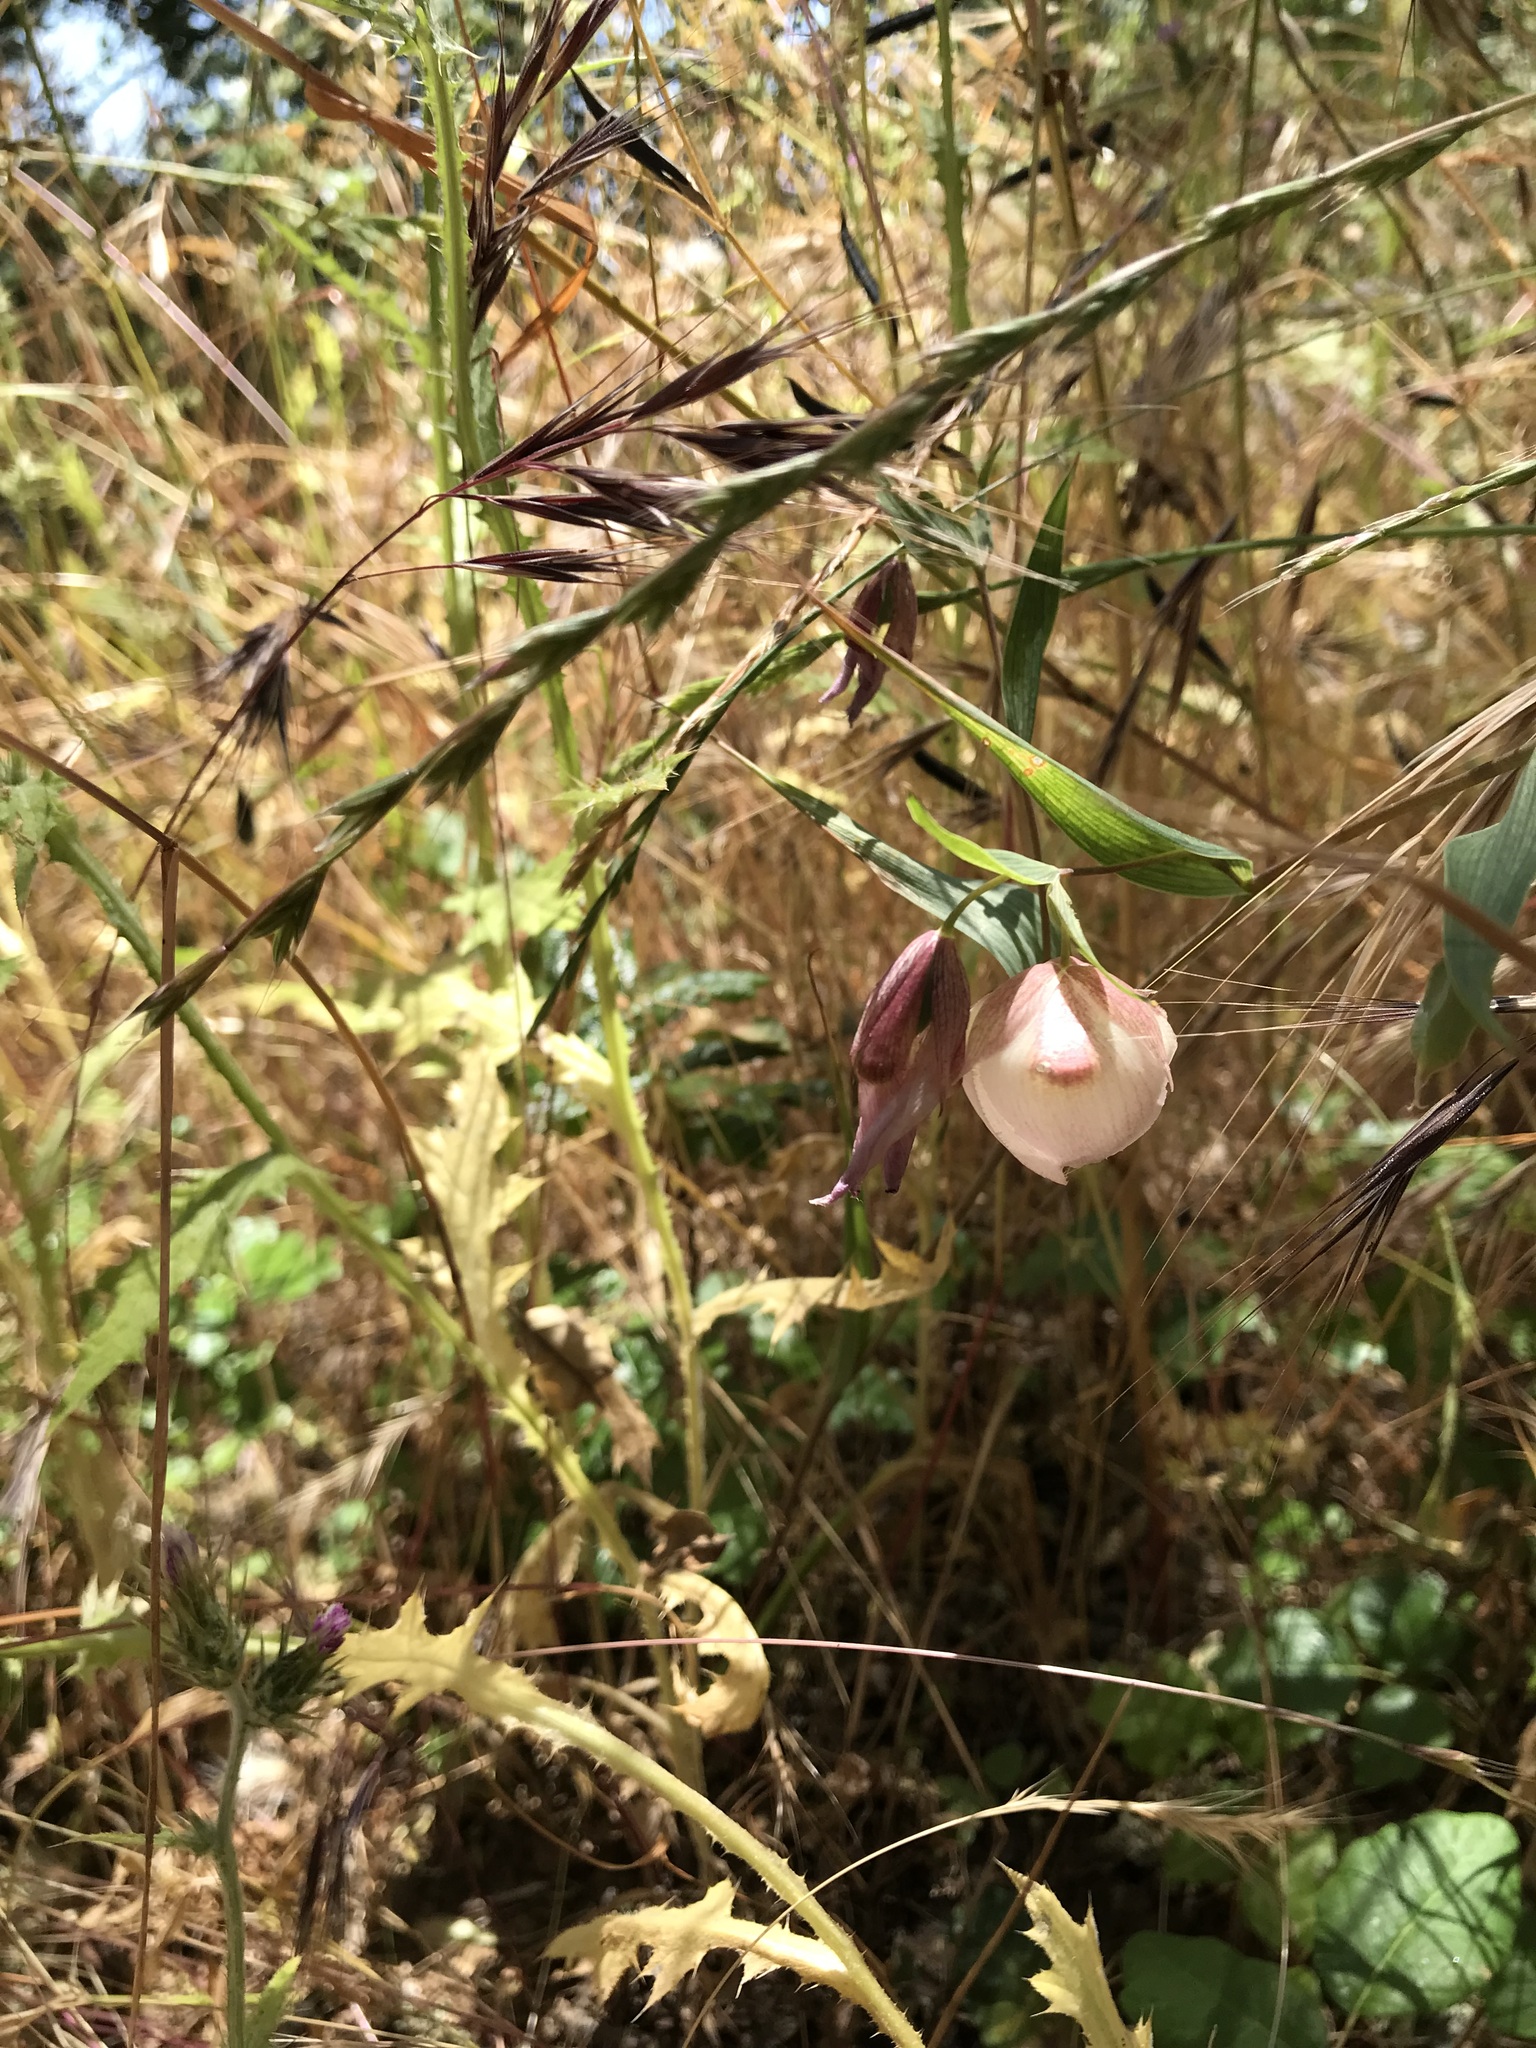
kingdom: Plantae
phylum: Tracheophyta
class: Liliopsida
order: Liliales
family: Liliaceae
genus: Calochortus
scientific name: Calochortus albus
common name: Fairy-lantern
